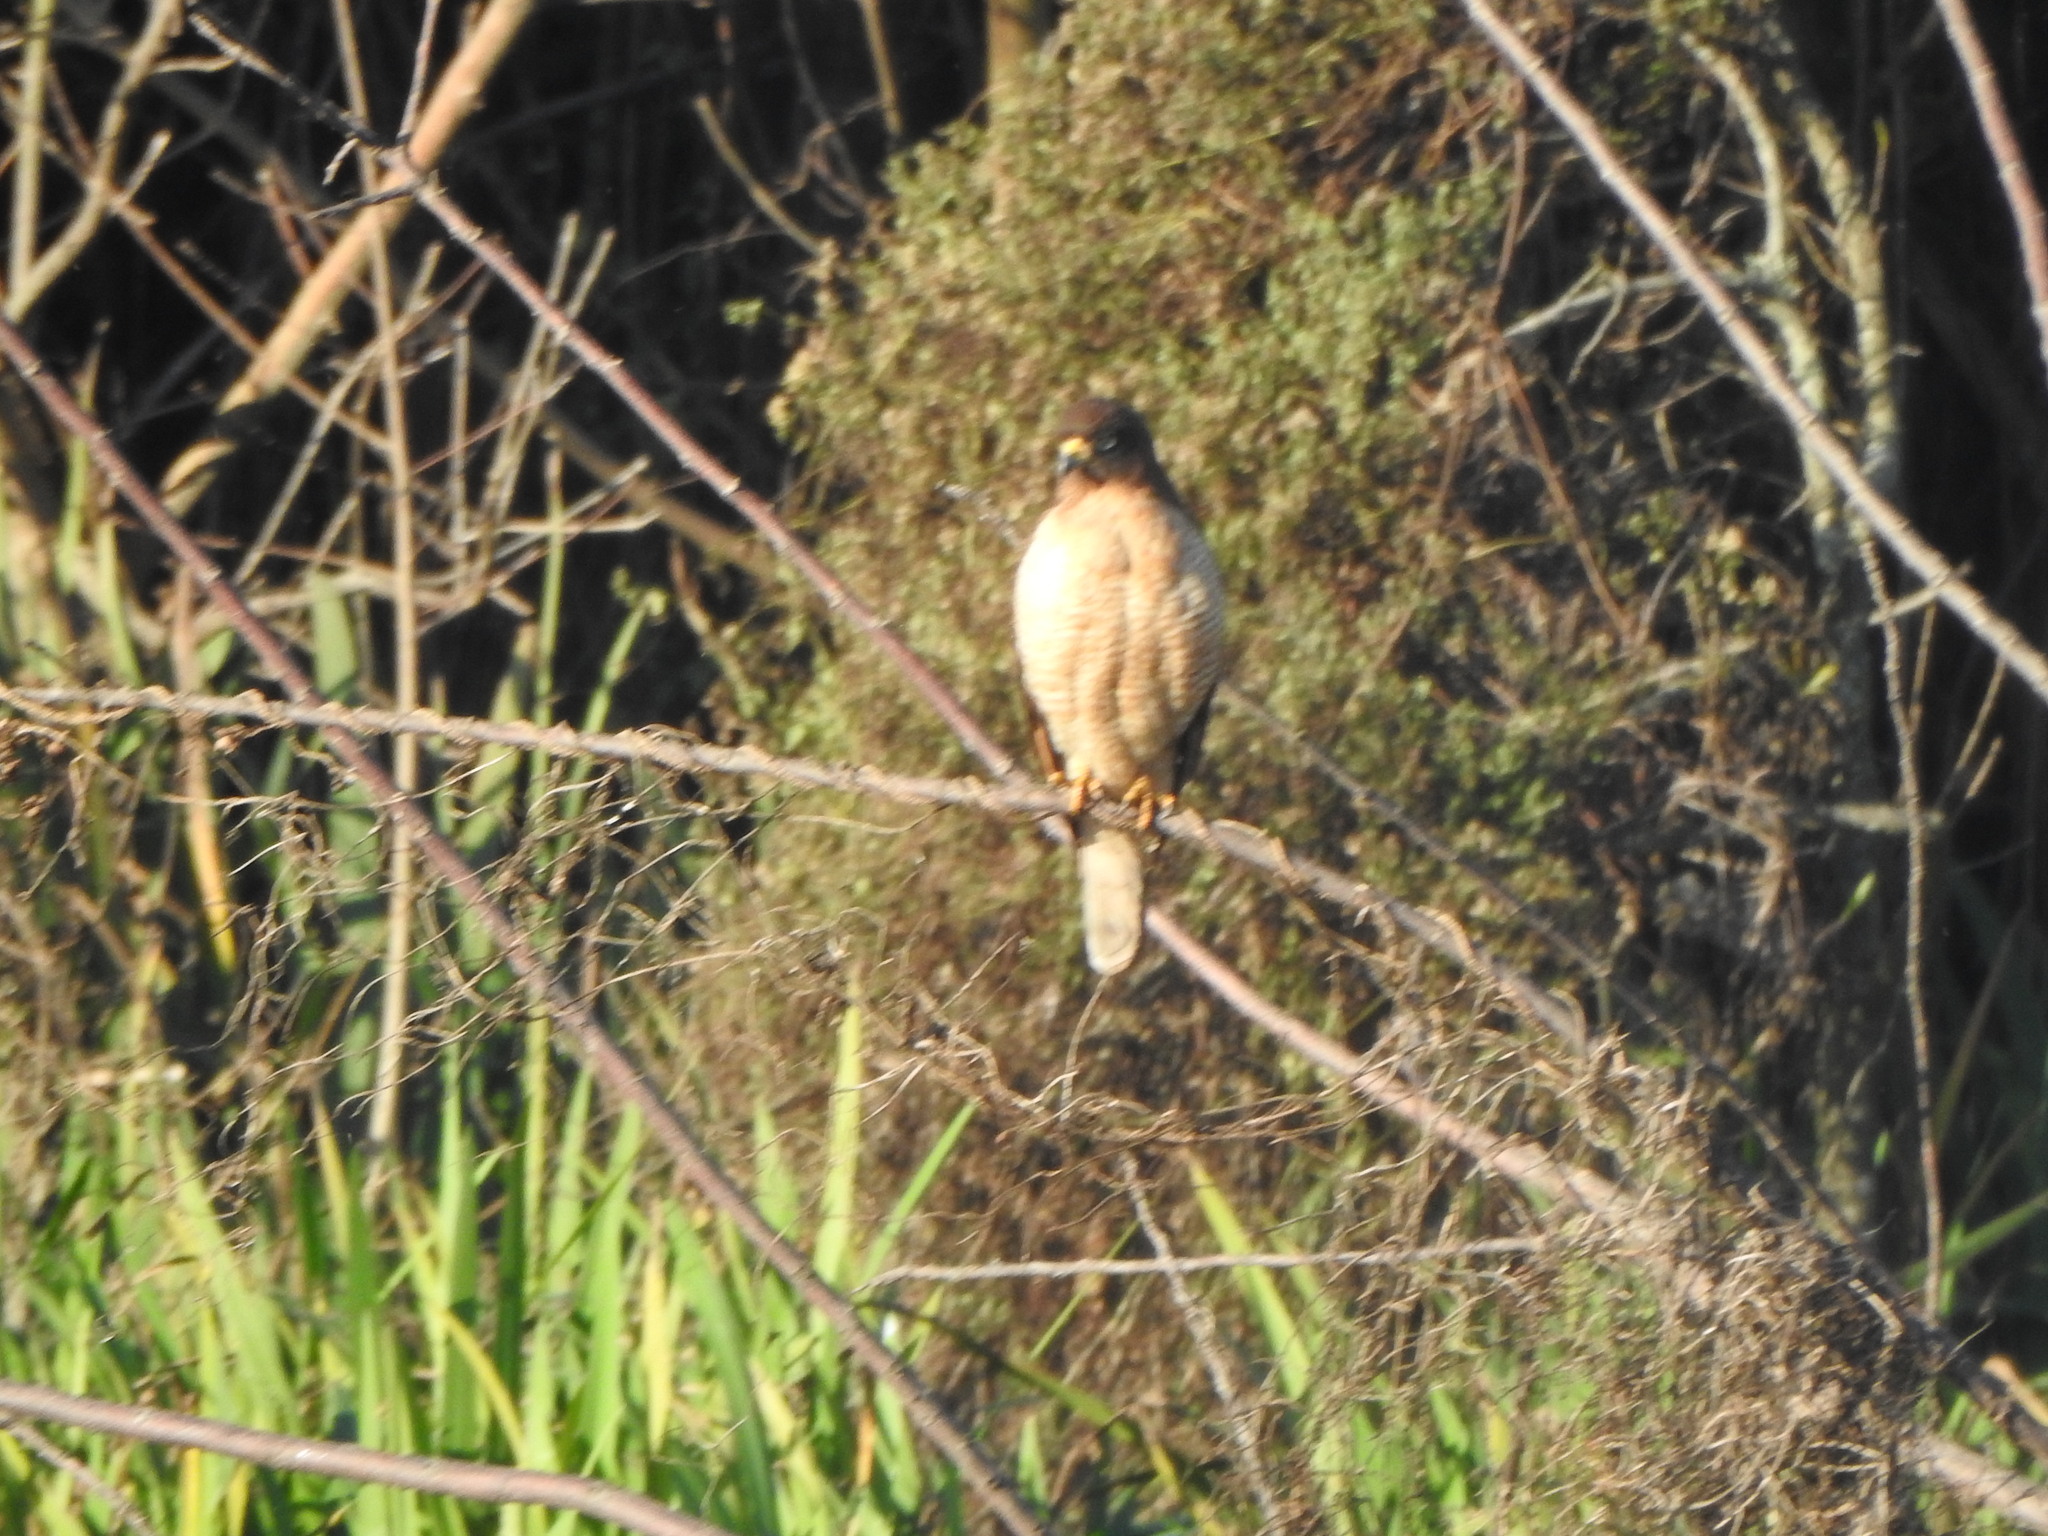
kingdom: Animalia
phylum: Chordata
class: Aves
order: Accipitriformes
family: Accipitridae
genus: Rupornis
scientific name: Rupornis magnirostris
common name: Roadside hawk
